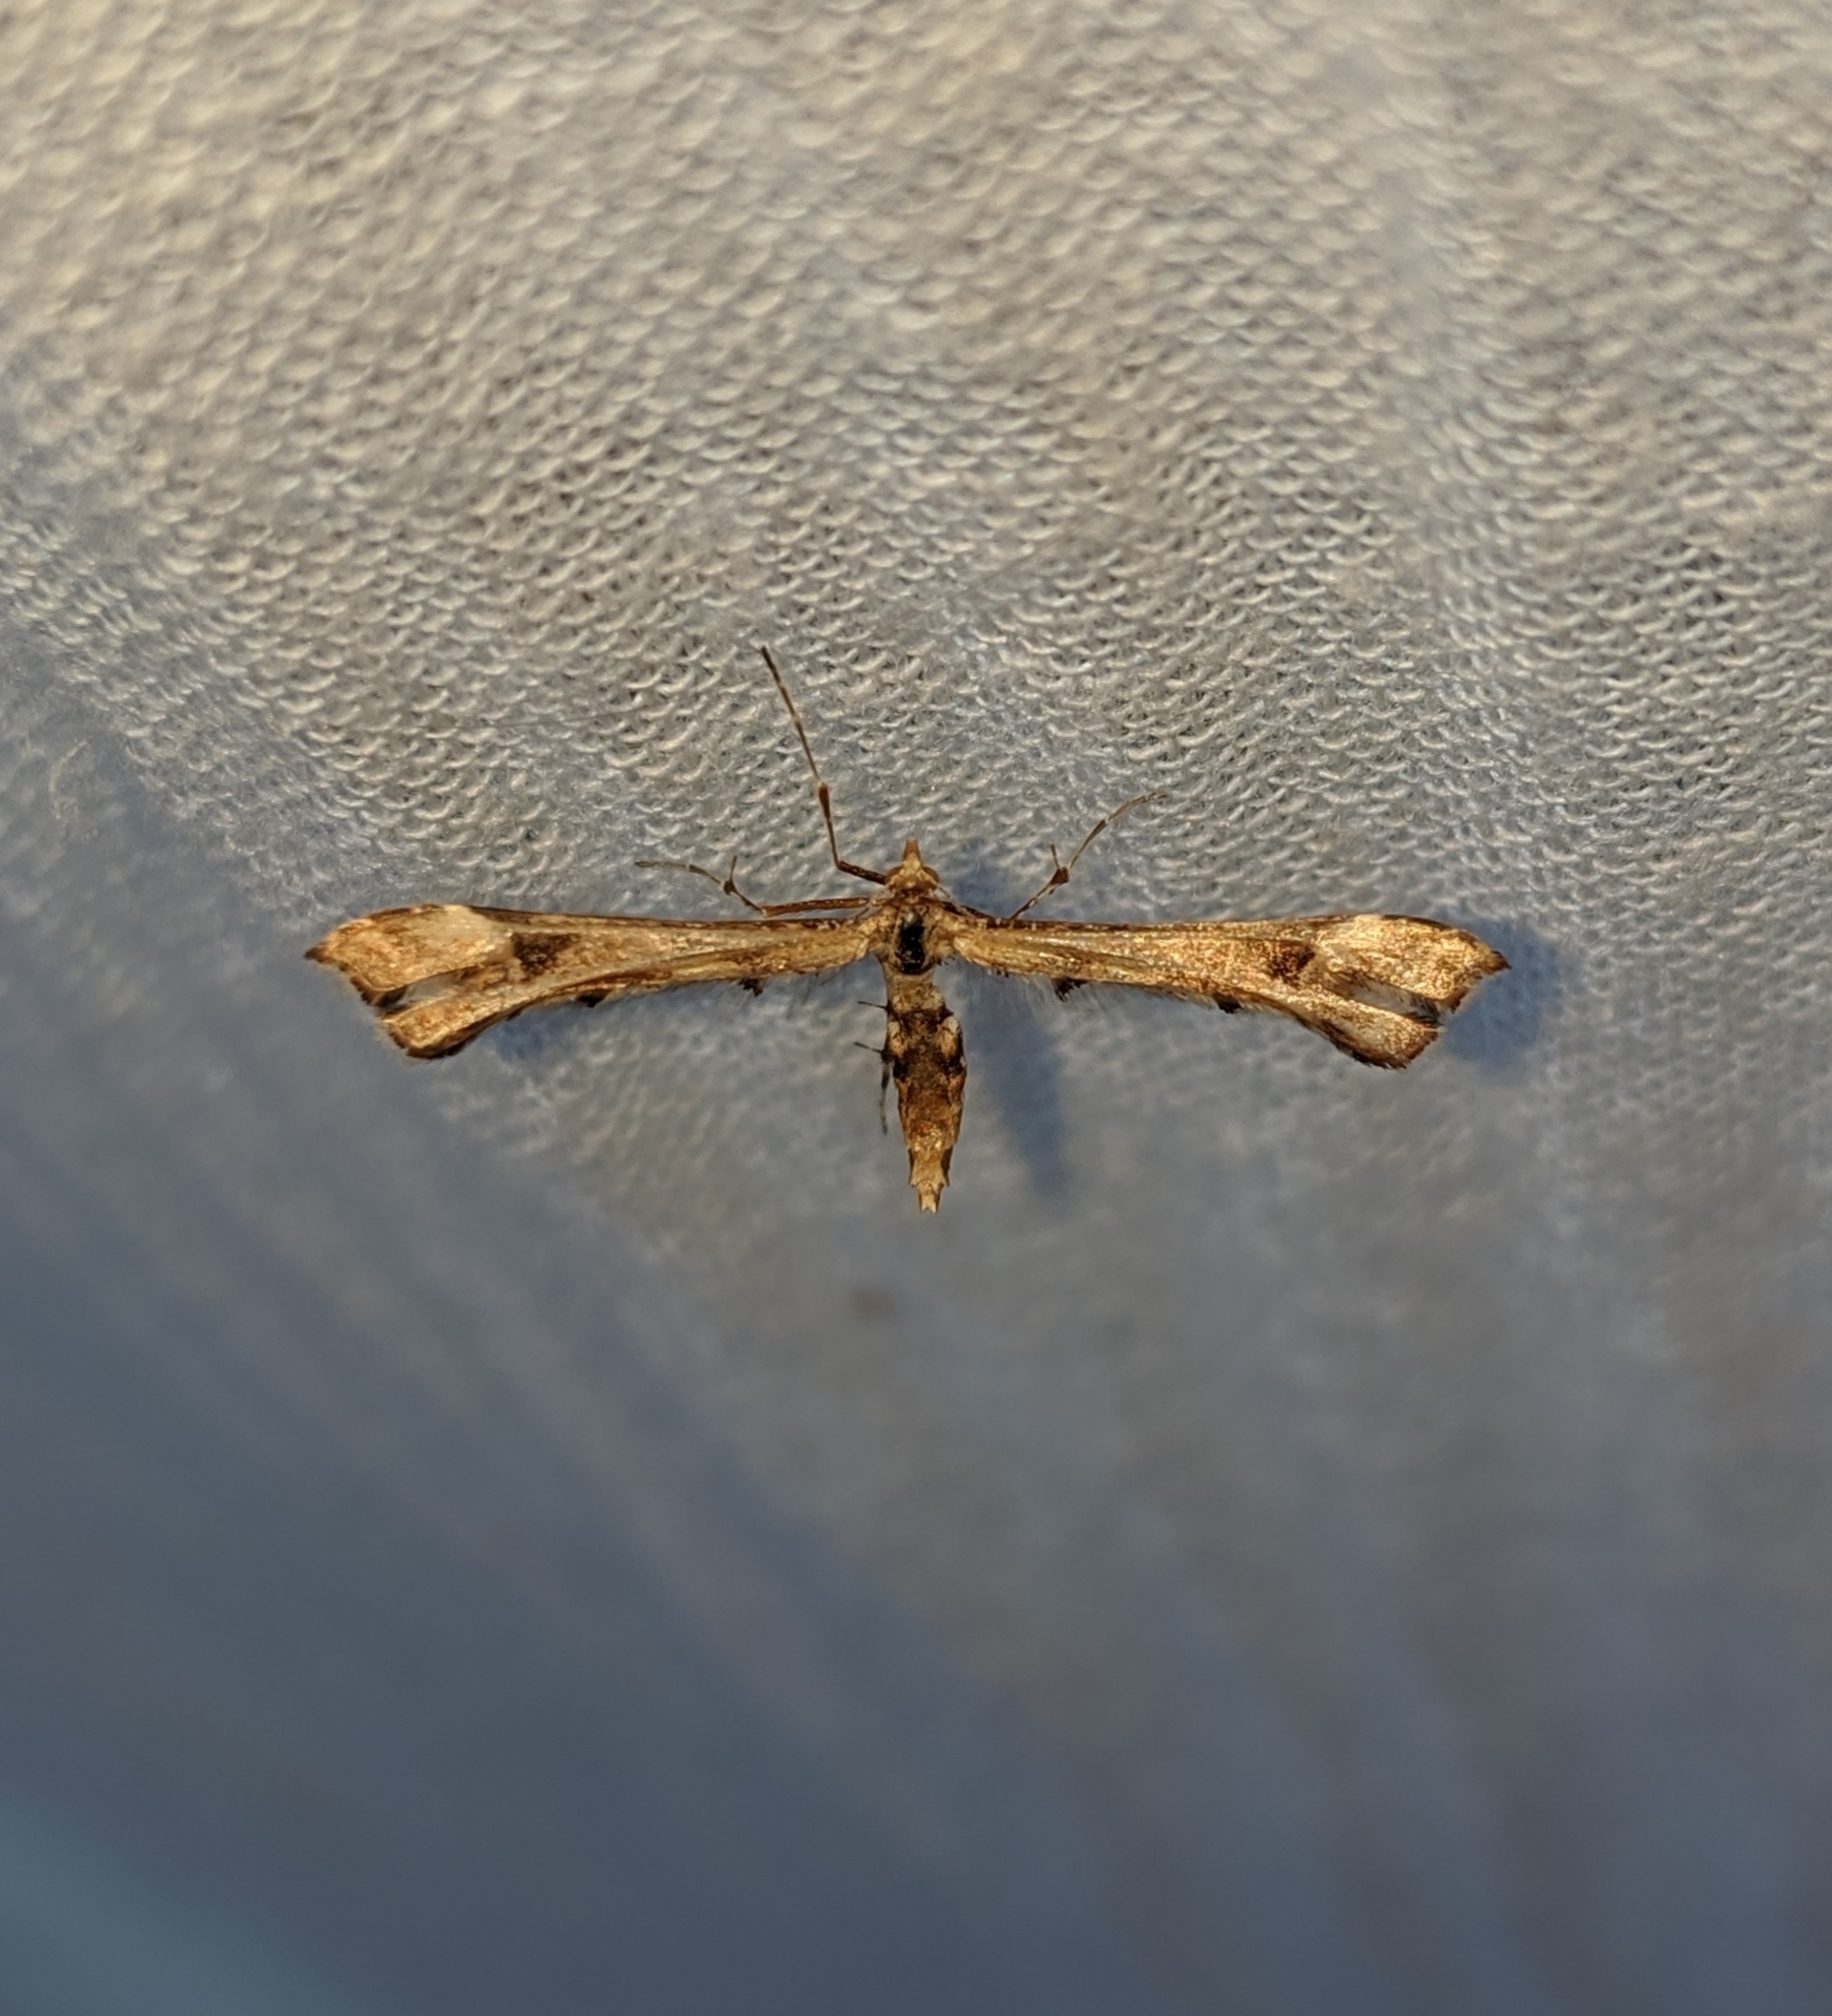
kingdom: Animalia
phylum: Arthropoda
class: Insecta
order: Lepidoptera
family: Pterophoridae
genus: Platyptilia
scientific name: Platyptilia carduidactylus
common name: Artichoke plume moth
